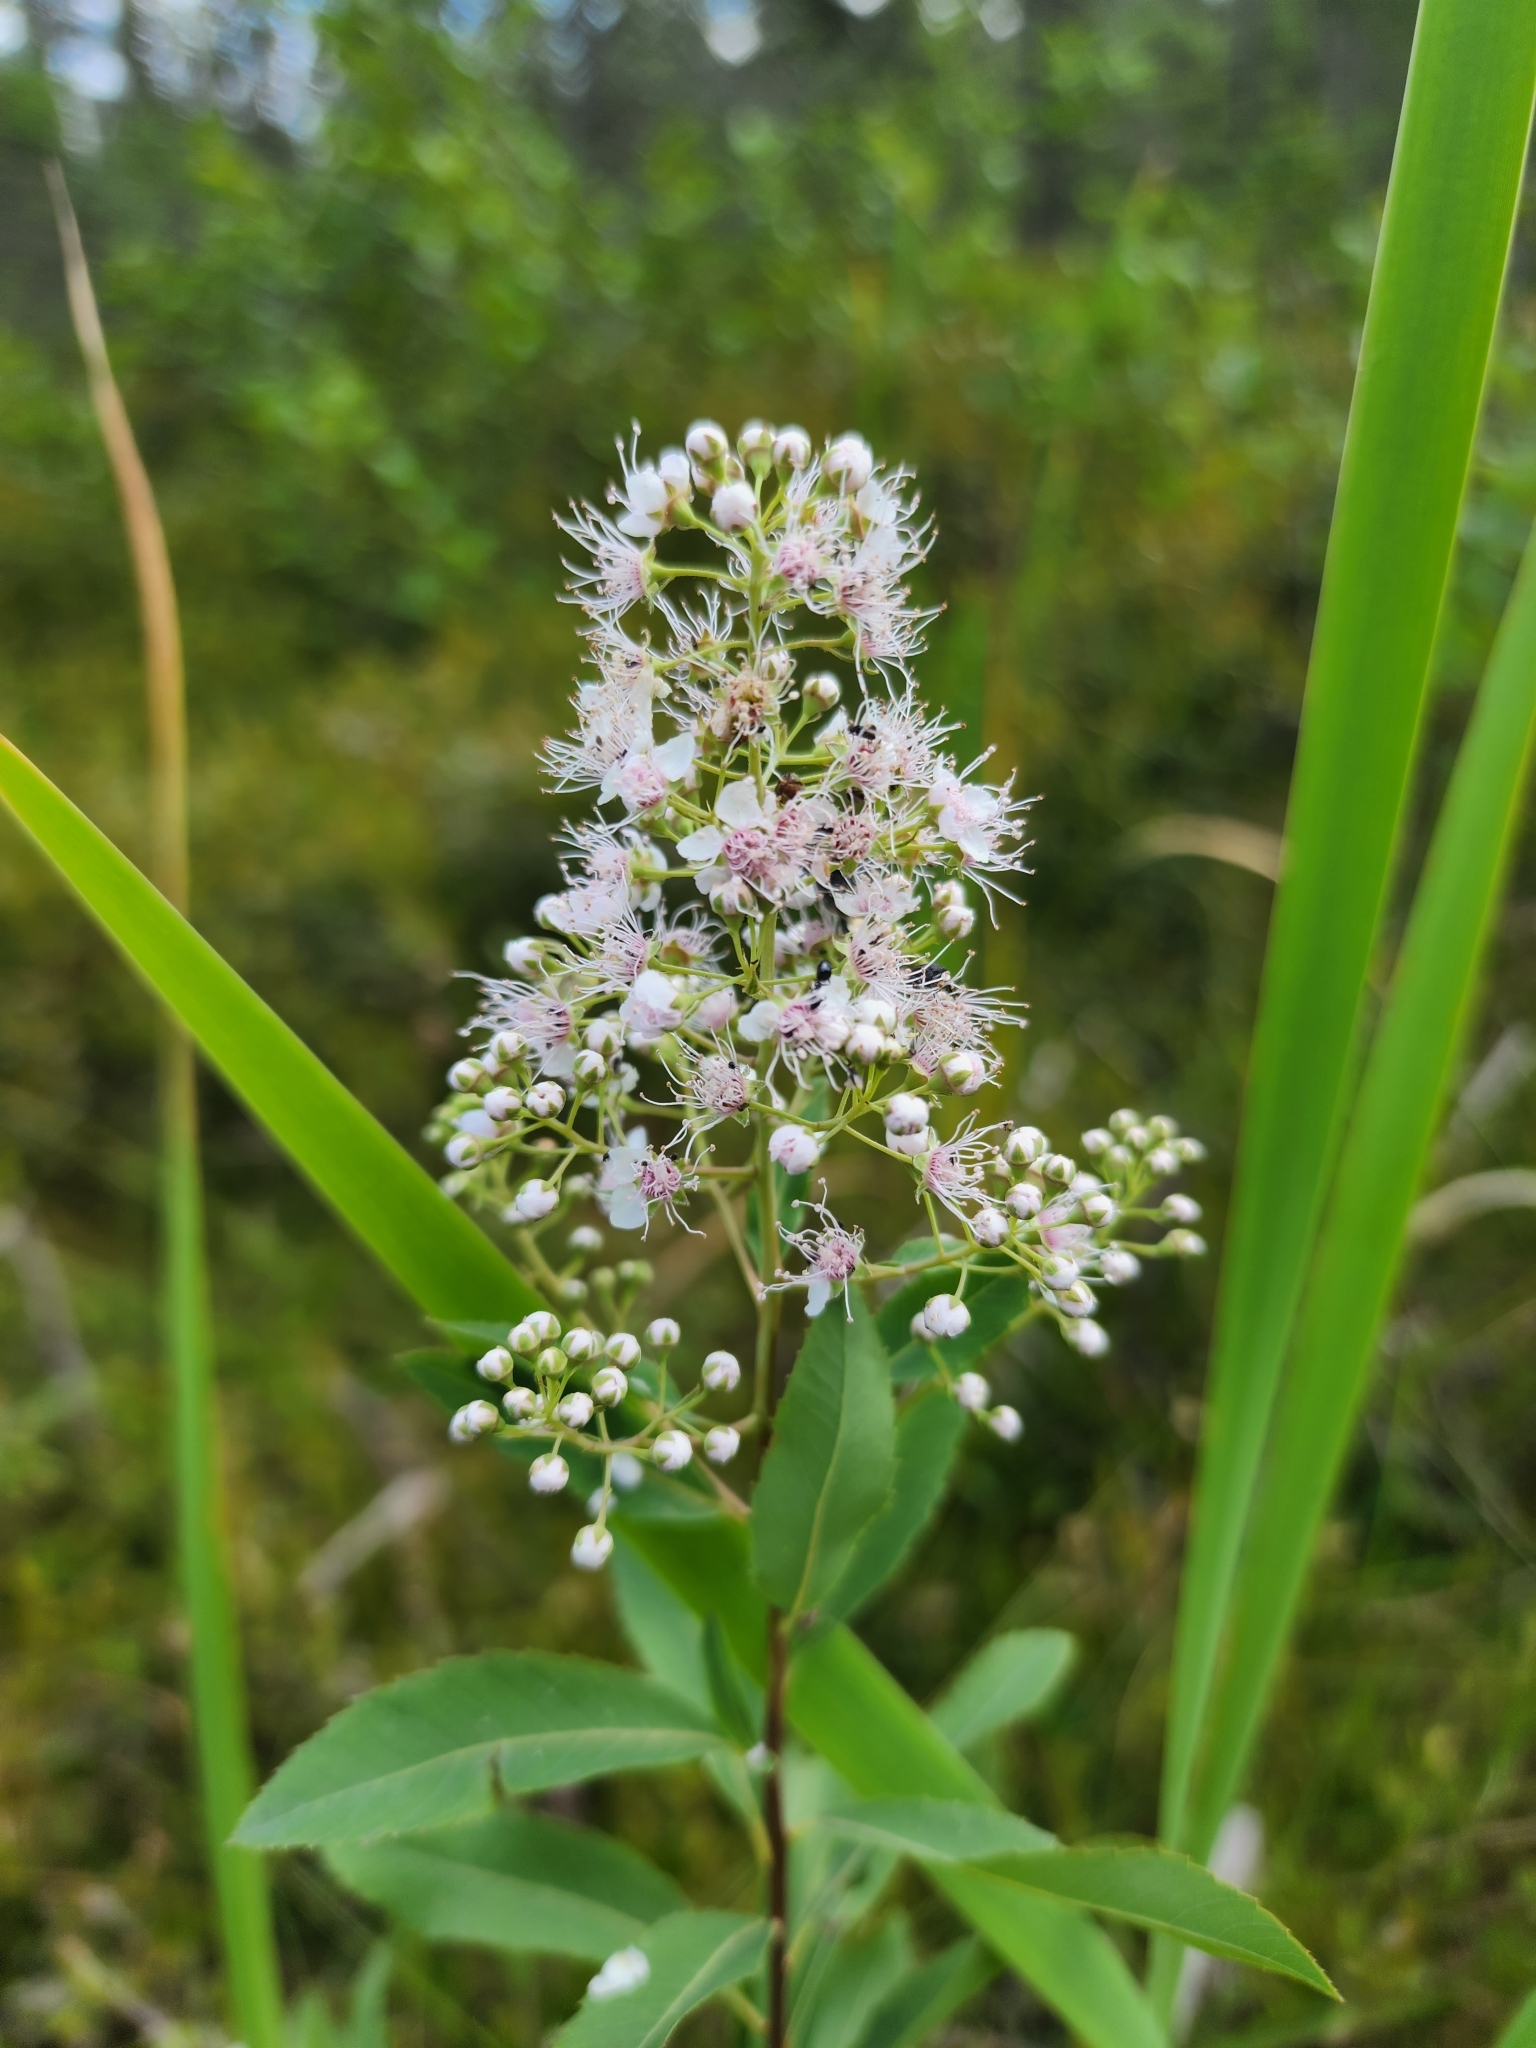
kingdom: Plantae
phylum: Tracheophyta
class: Magnoliopsida
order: Rosales
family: Rosaceae
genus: Spiraea
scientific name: Spiraea alba
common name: Pale bridewort
